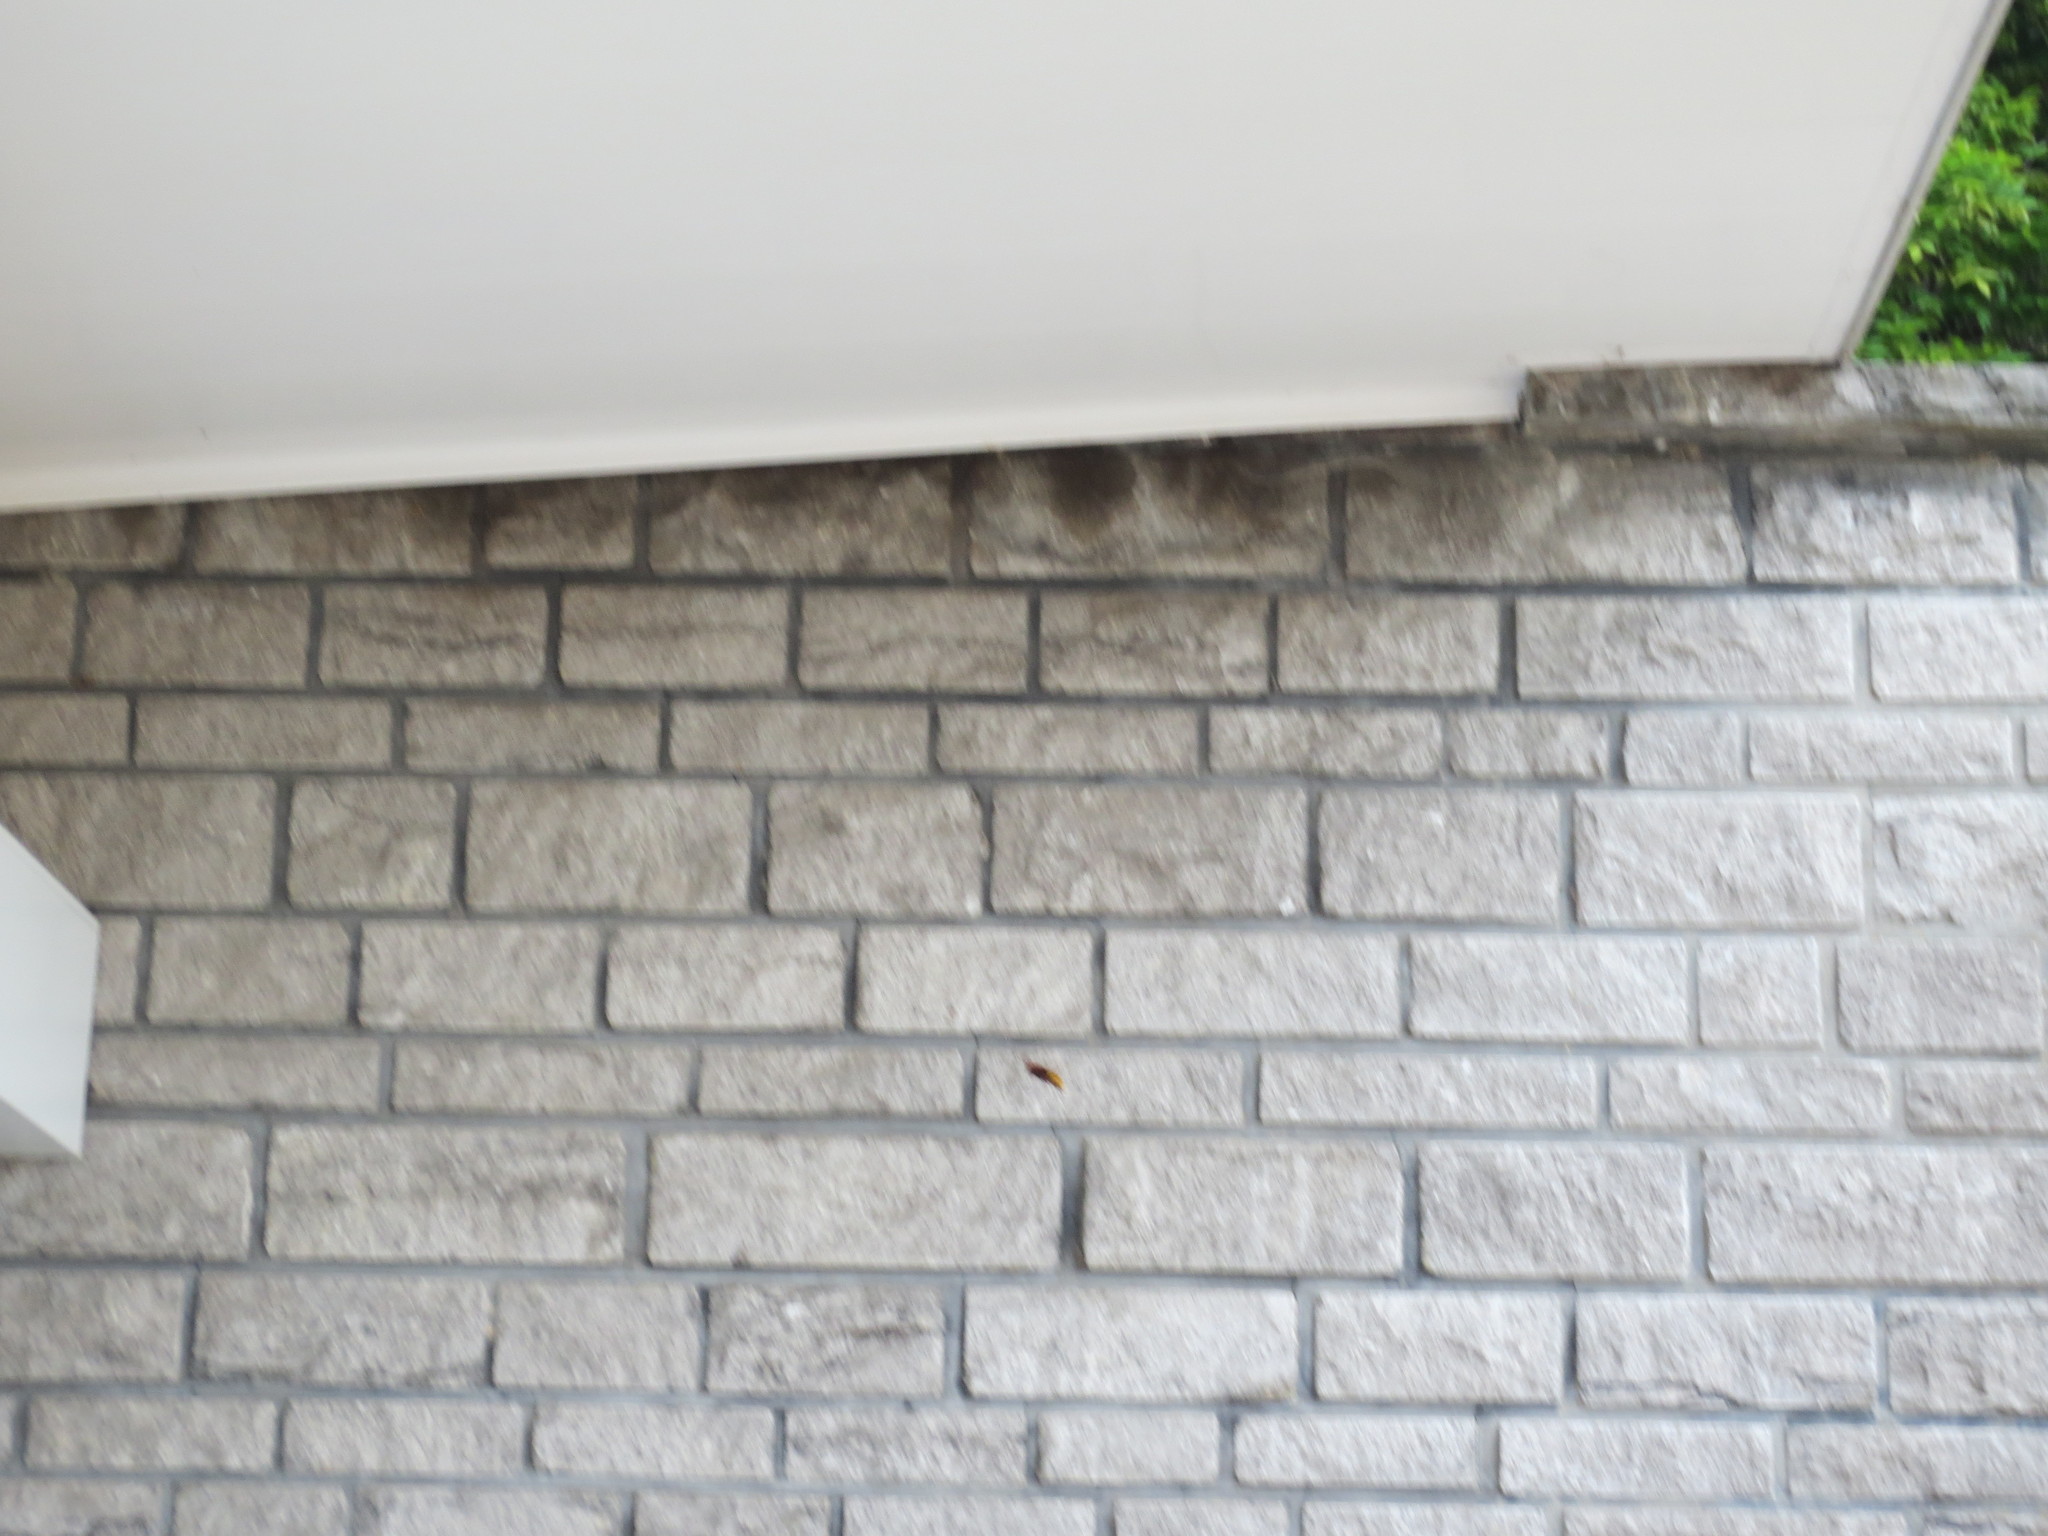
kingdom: Animalia
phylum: Arthropoda
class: Insecta
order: Hymenoptera
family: Vespidae
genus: Vespa
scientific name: Vespa crabro
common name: Hornet
